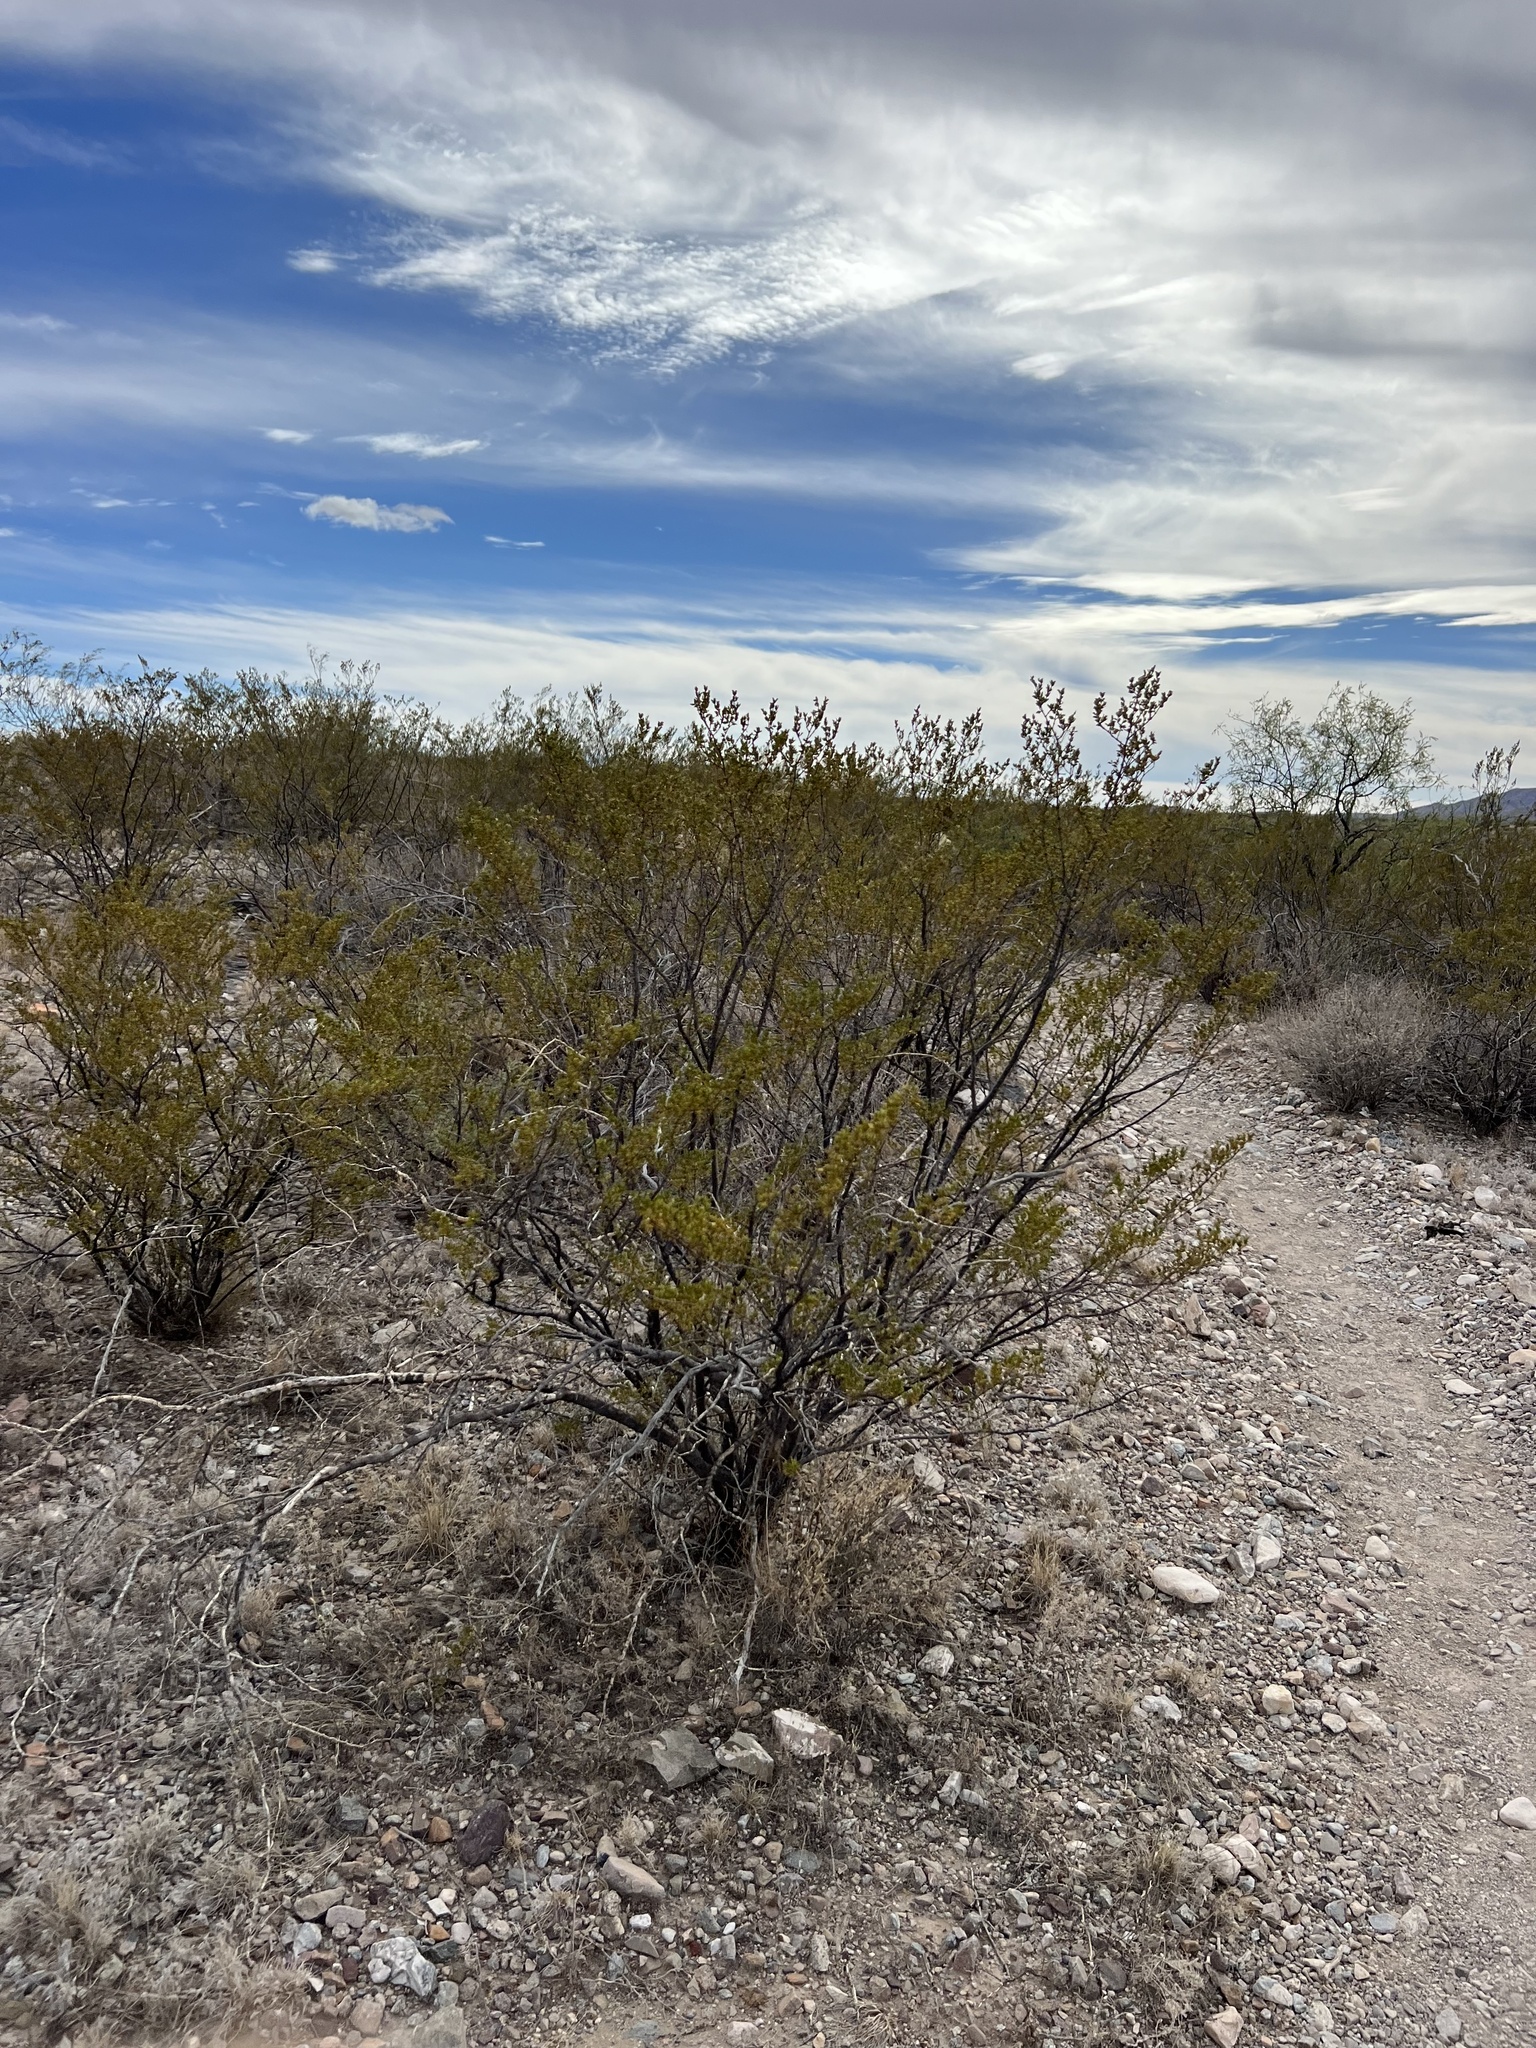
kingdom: Plantae
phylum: Tracheophyta
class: Magnoliopsida
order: Zygophyllales
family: Zygophyllaceae
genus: Larrea
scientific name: Larrea tridentata
